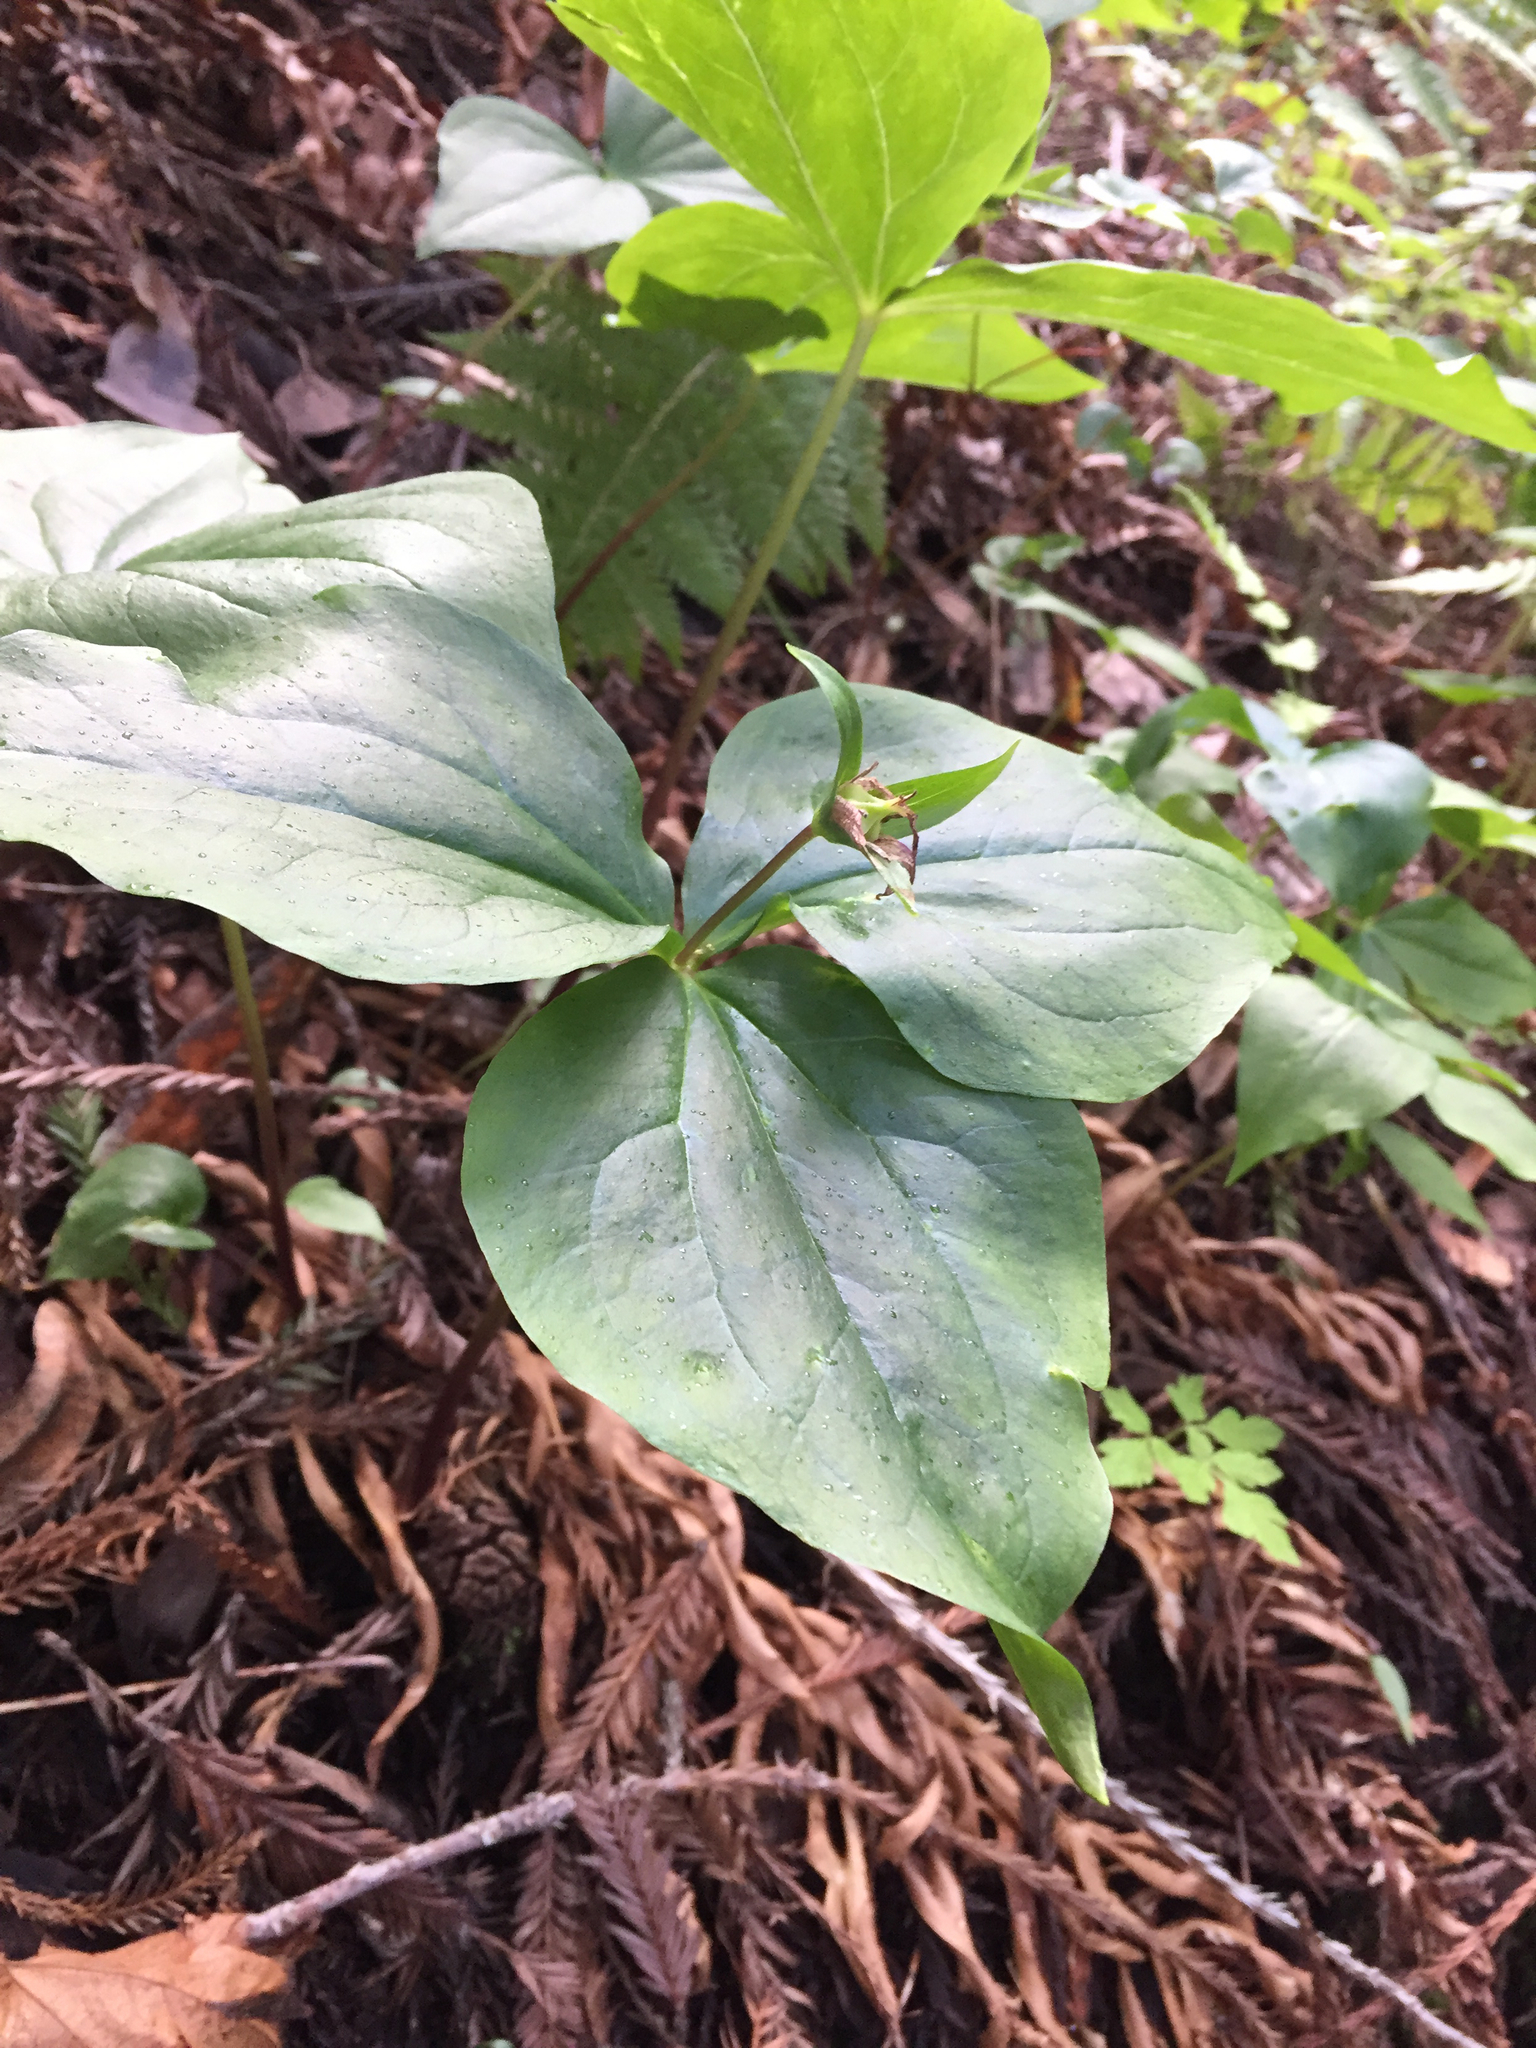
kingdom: Plantae
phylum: Tracheophyta
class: Liliopsida
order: Liliales
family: Melanthiaceae
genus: Trillium
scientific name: Trillium ovatum
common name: Pacific trillium
